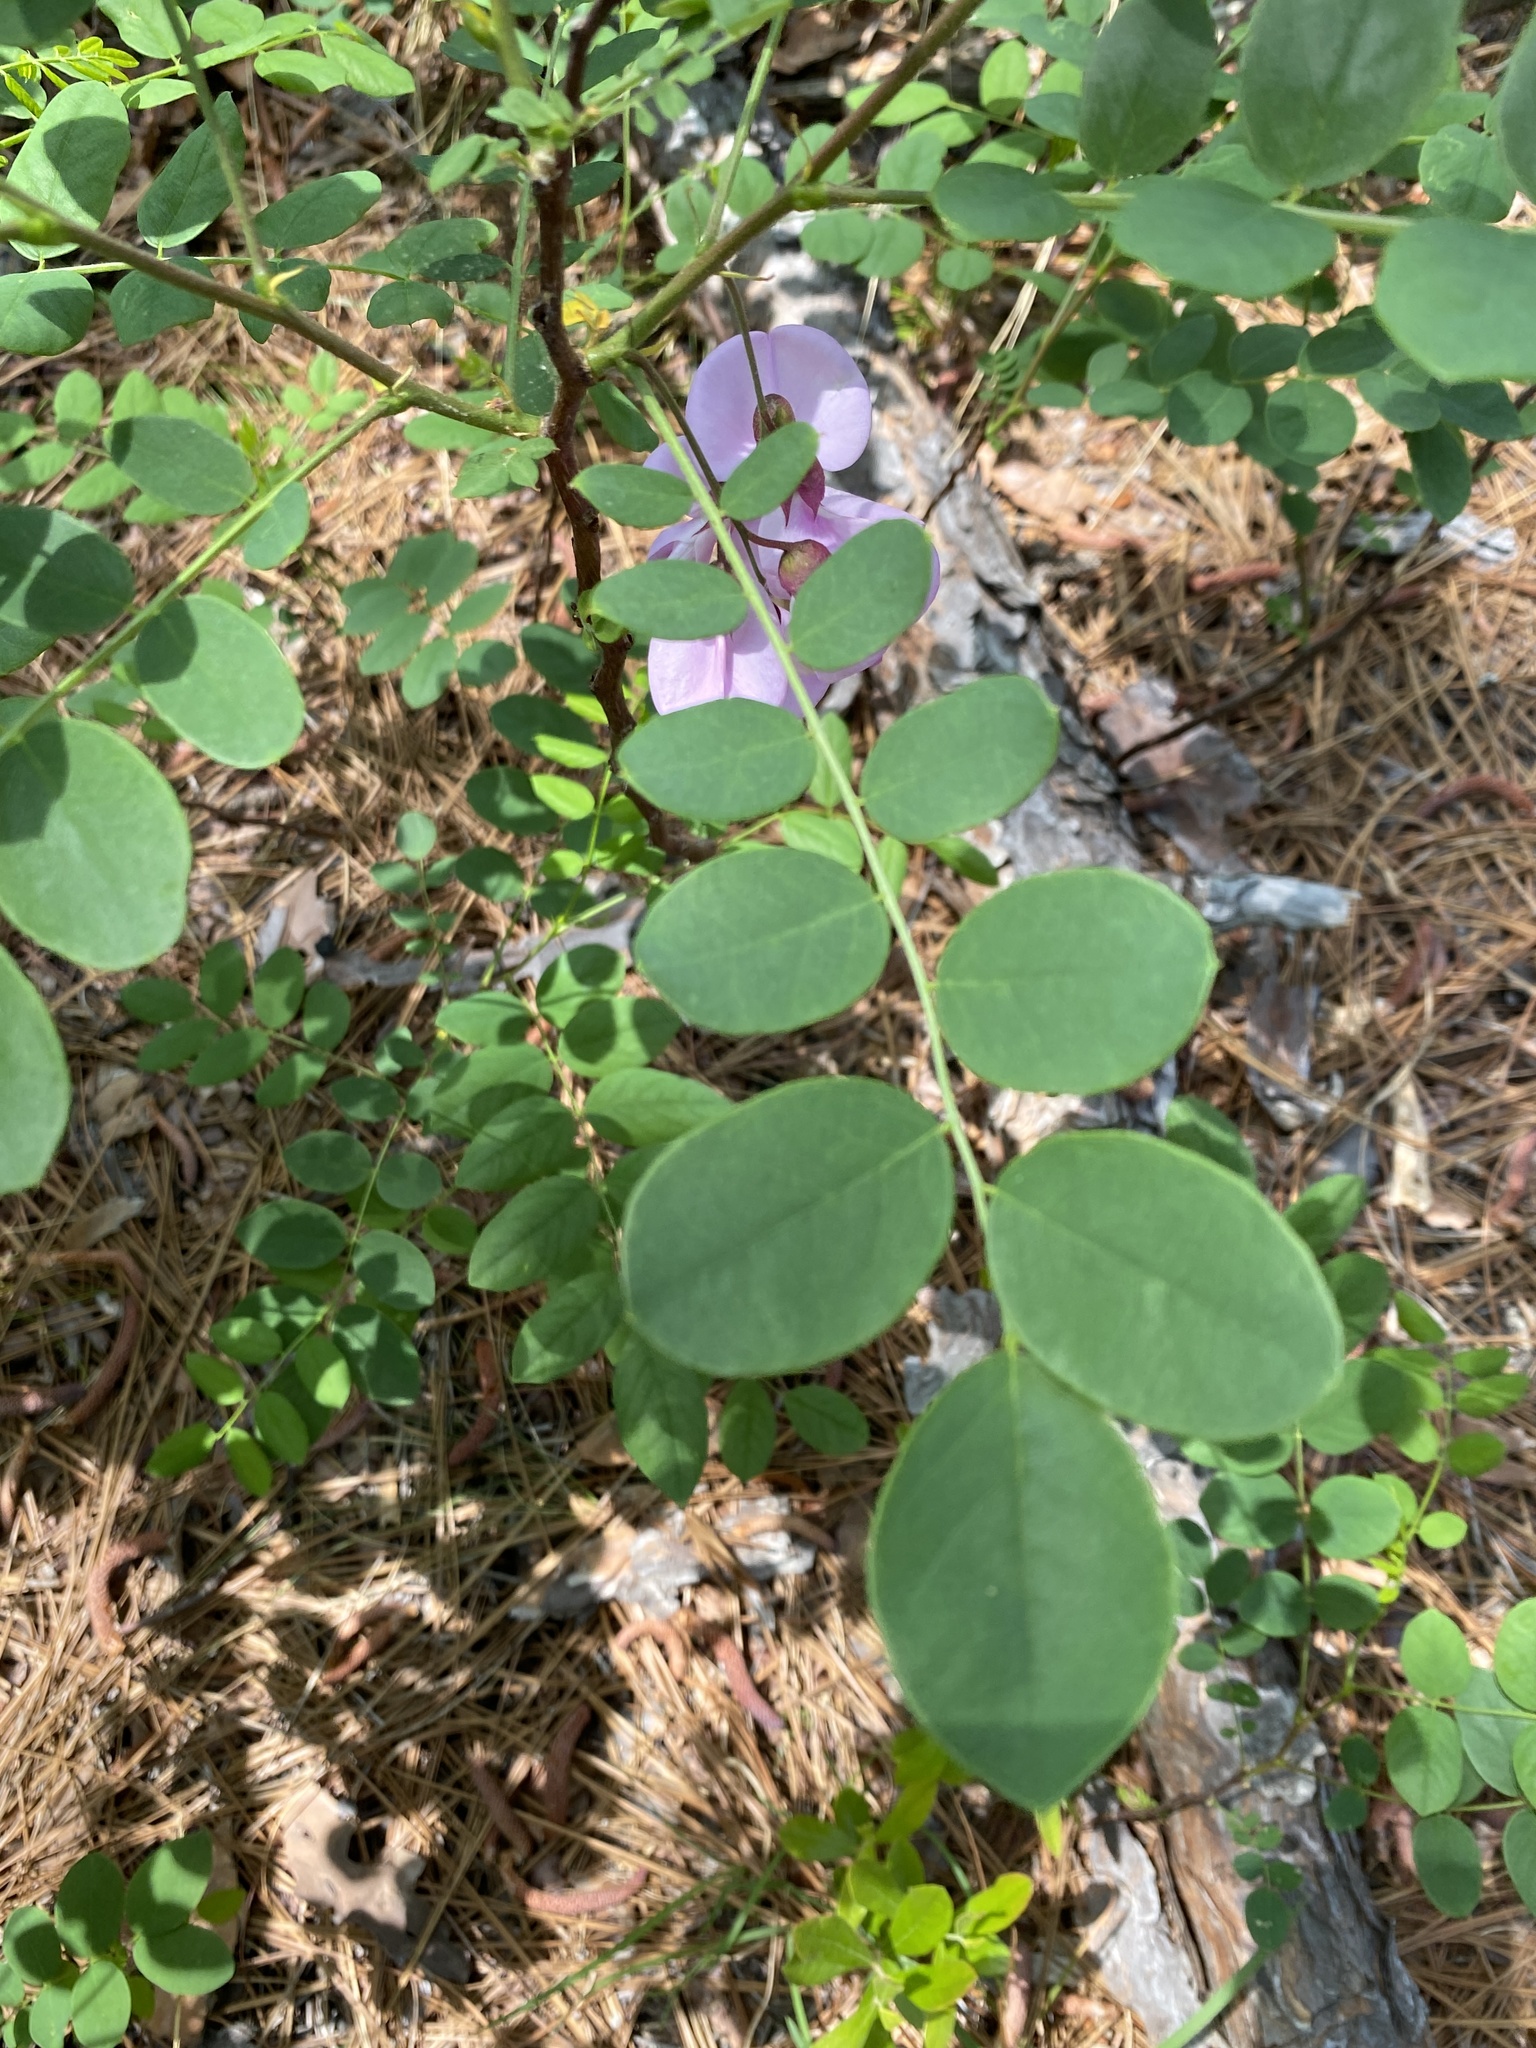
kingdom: Plantae
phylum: Tracheophyta
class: Magnoliopsida
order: Fabales
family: Fabaceae
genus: Robinia
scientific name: Robinia hispida
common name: Bristly locust
